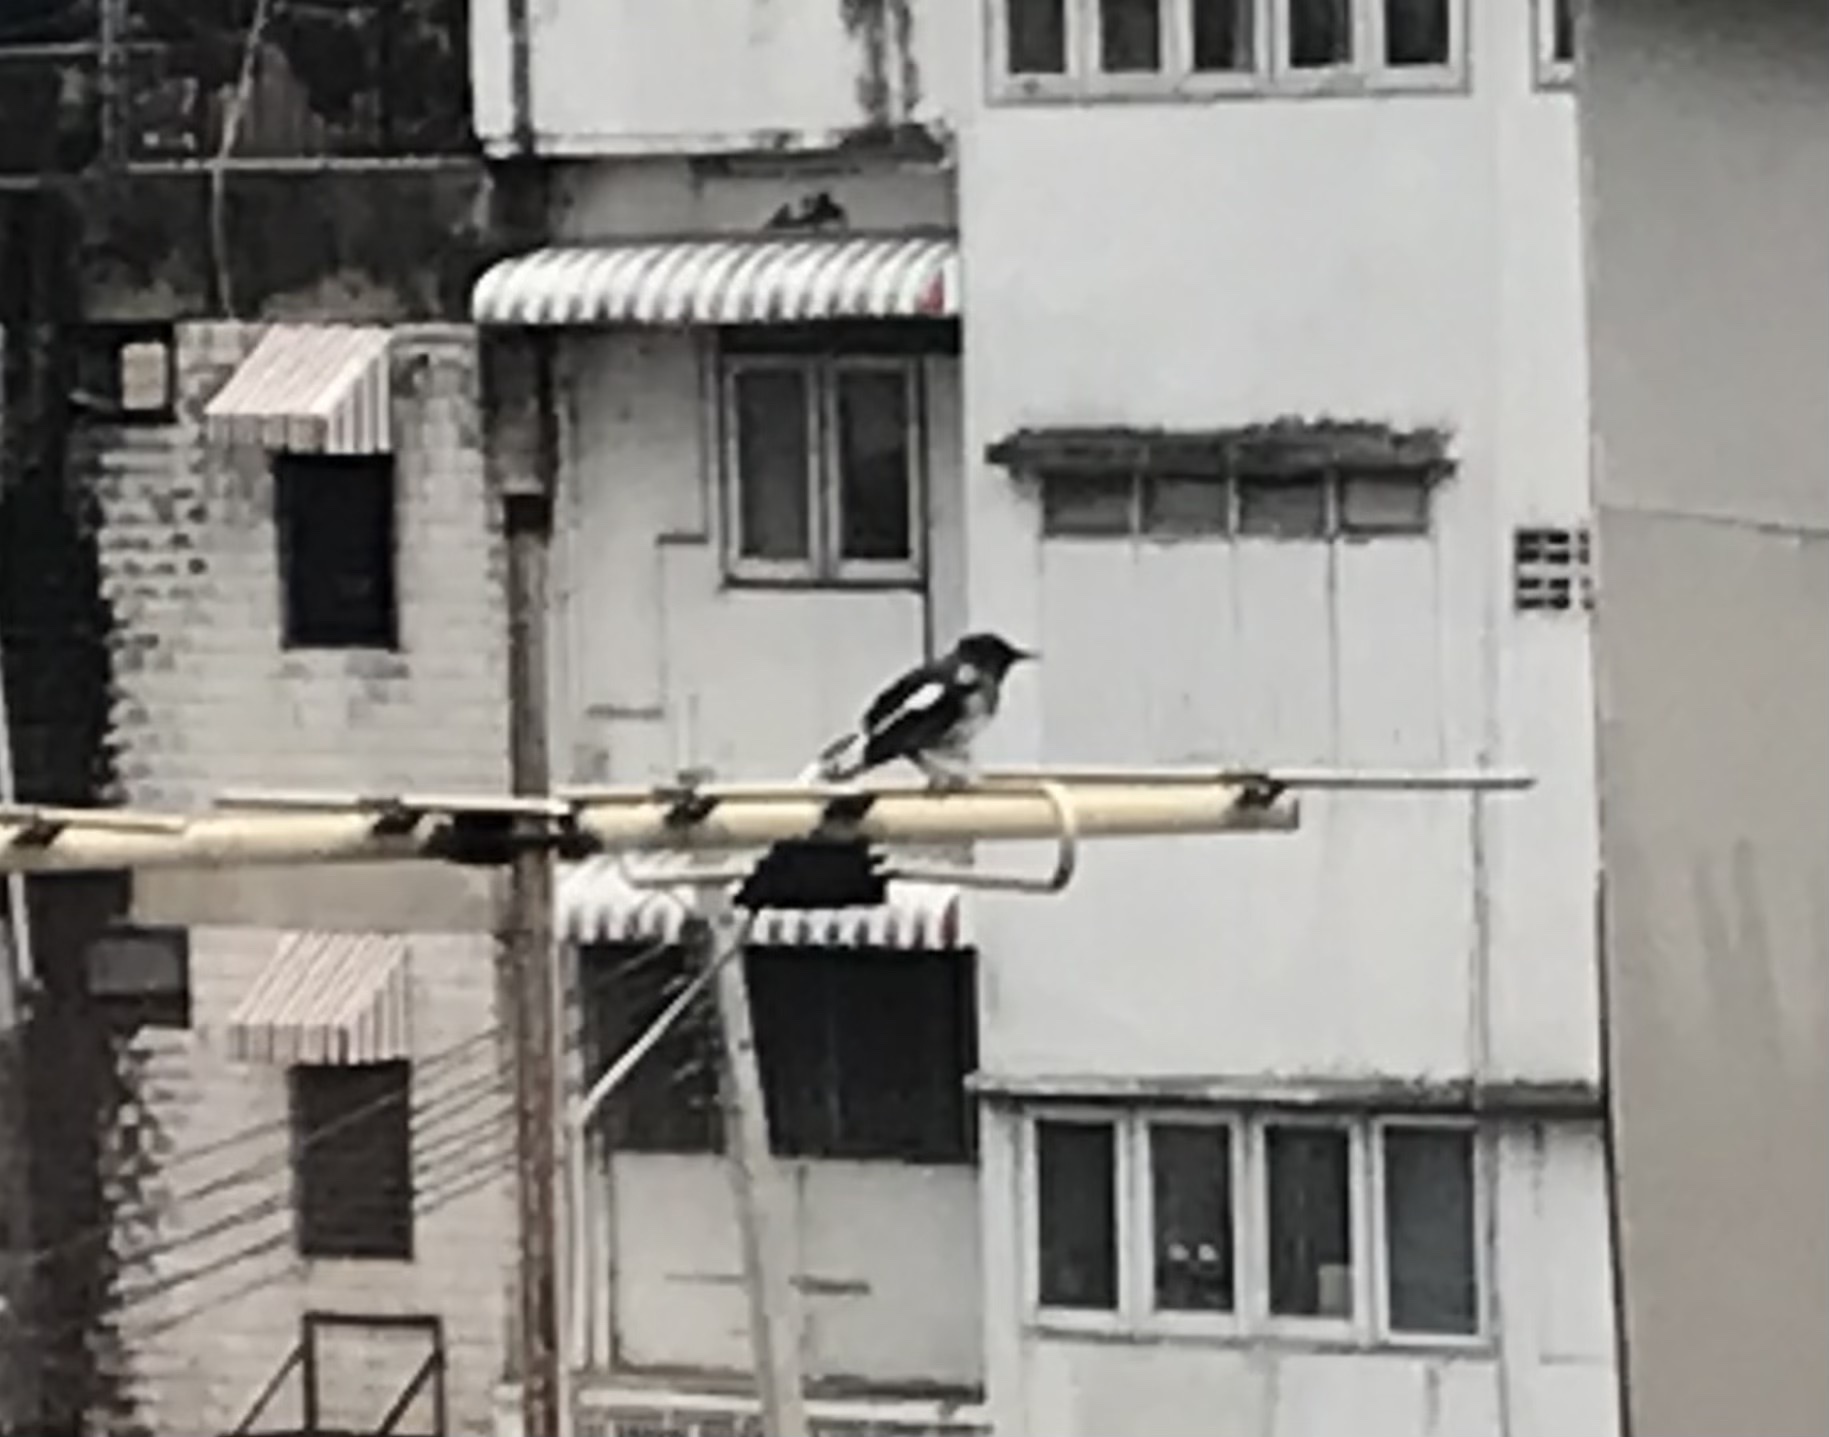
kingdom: Animalia
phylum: Chordata
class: Aves
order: Passeriformes
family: Muscicapidae
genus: Copsychus
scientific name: Copsychus saularis
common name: Oriental magpie-robin
